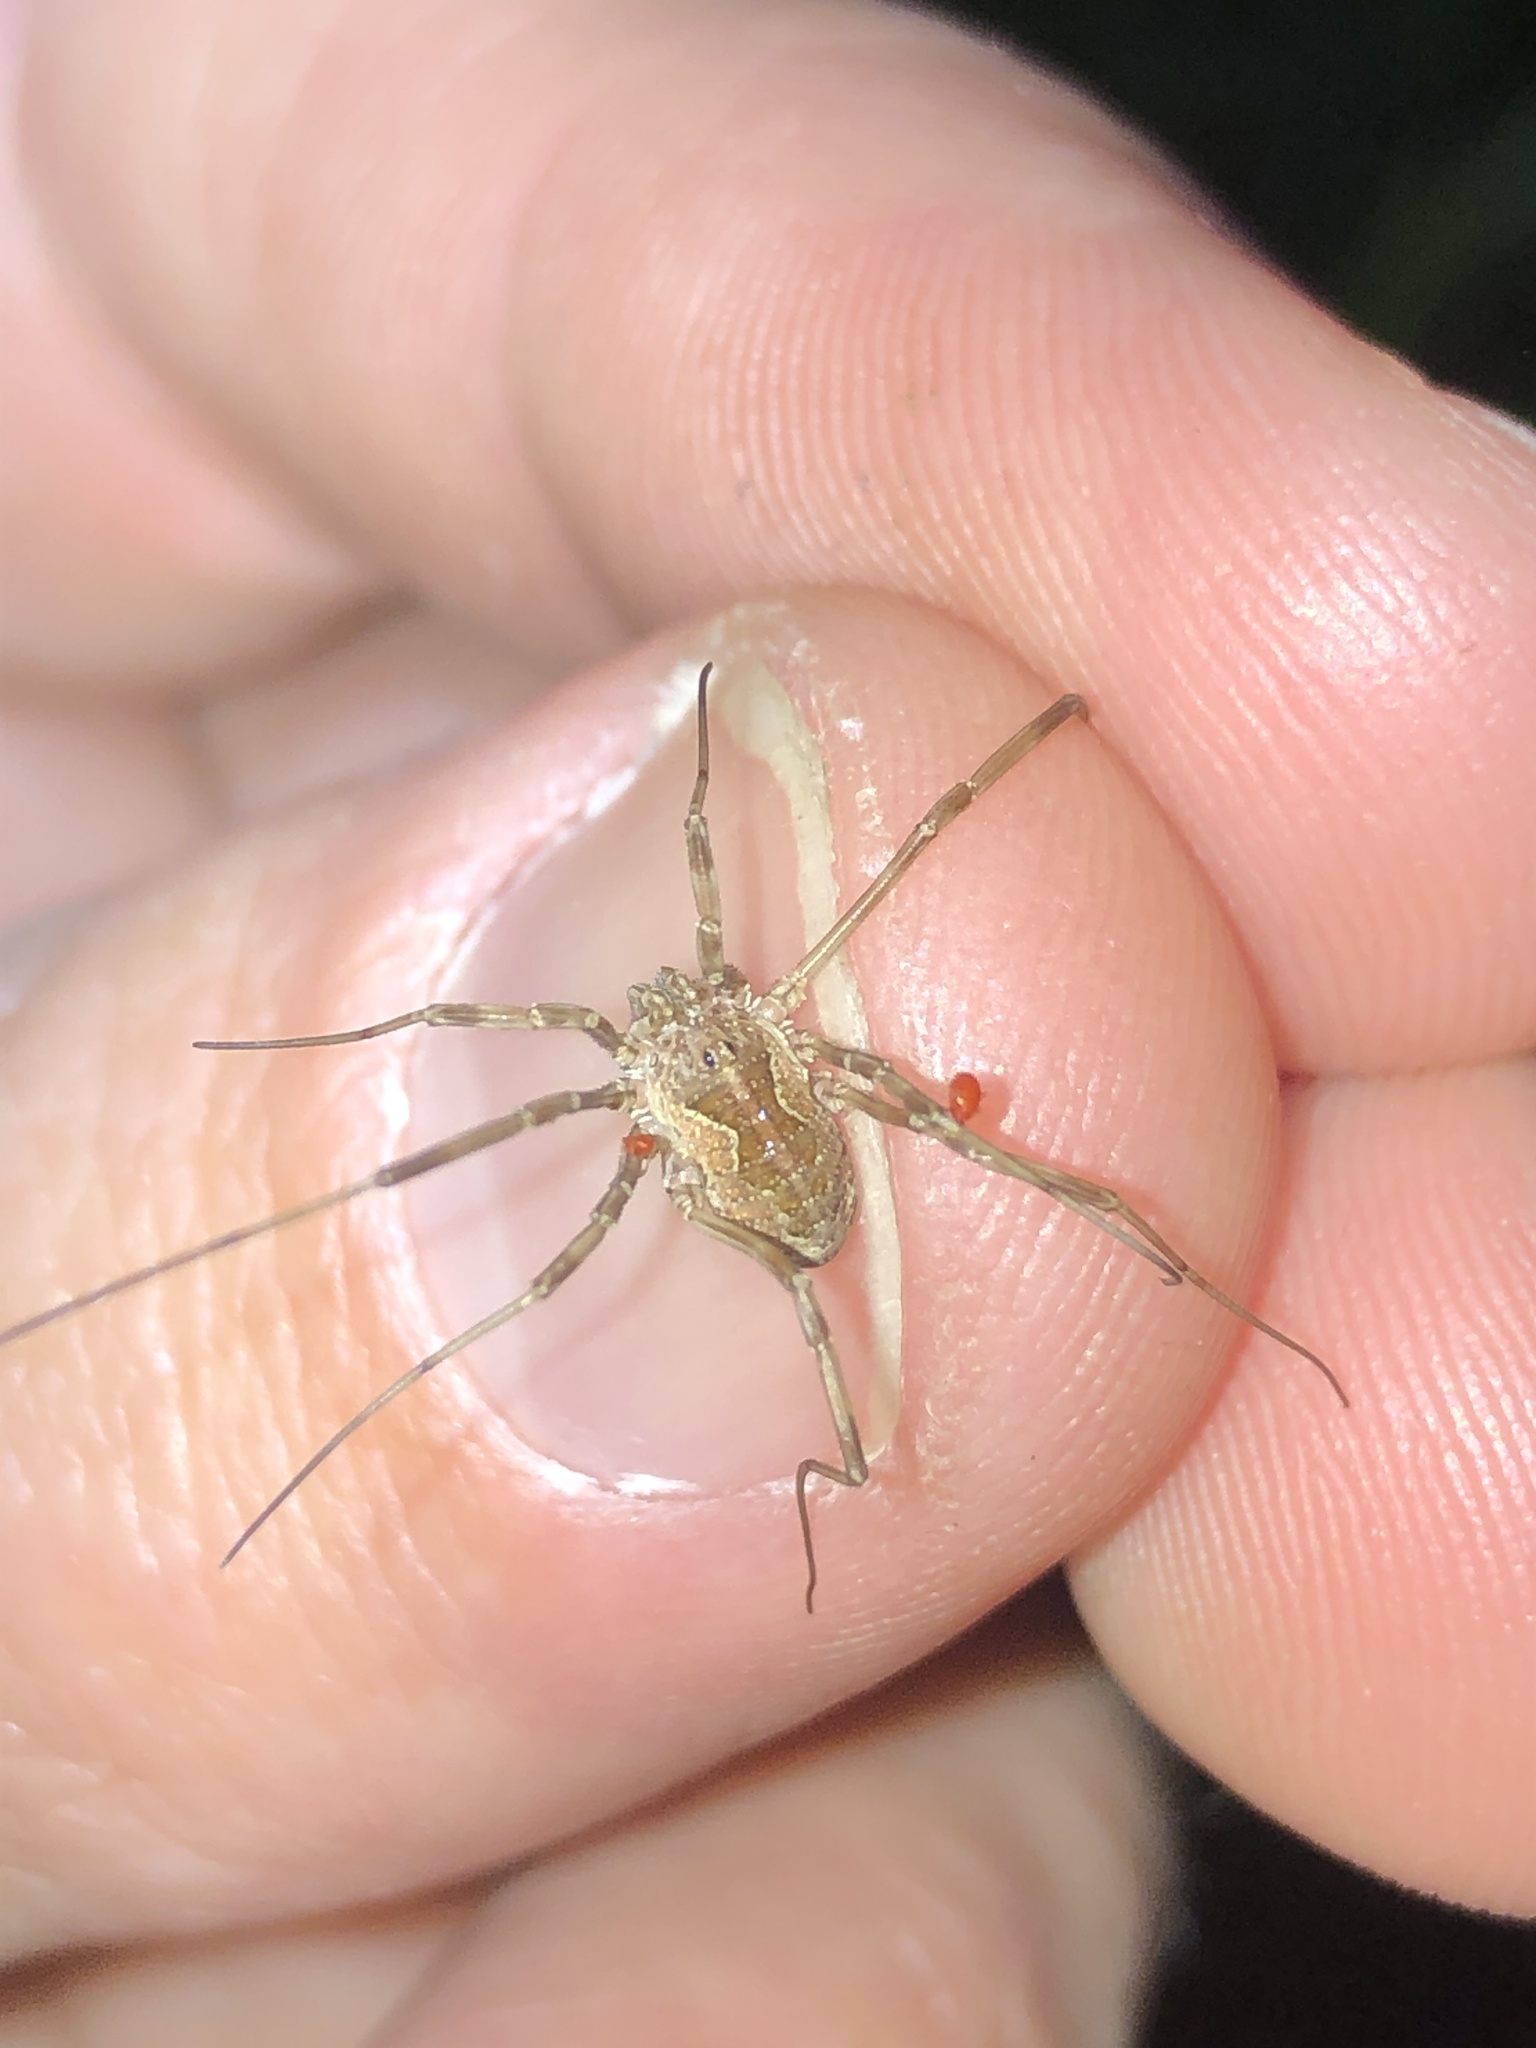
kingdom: Animalia
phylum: Arthropoda
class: Arachnida
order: Opiliones
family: Phalangiidae
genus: Mitopus
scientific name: Mitopus morio
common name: Saddleback harvestman
